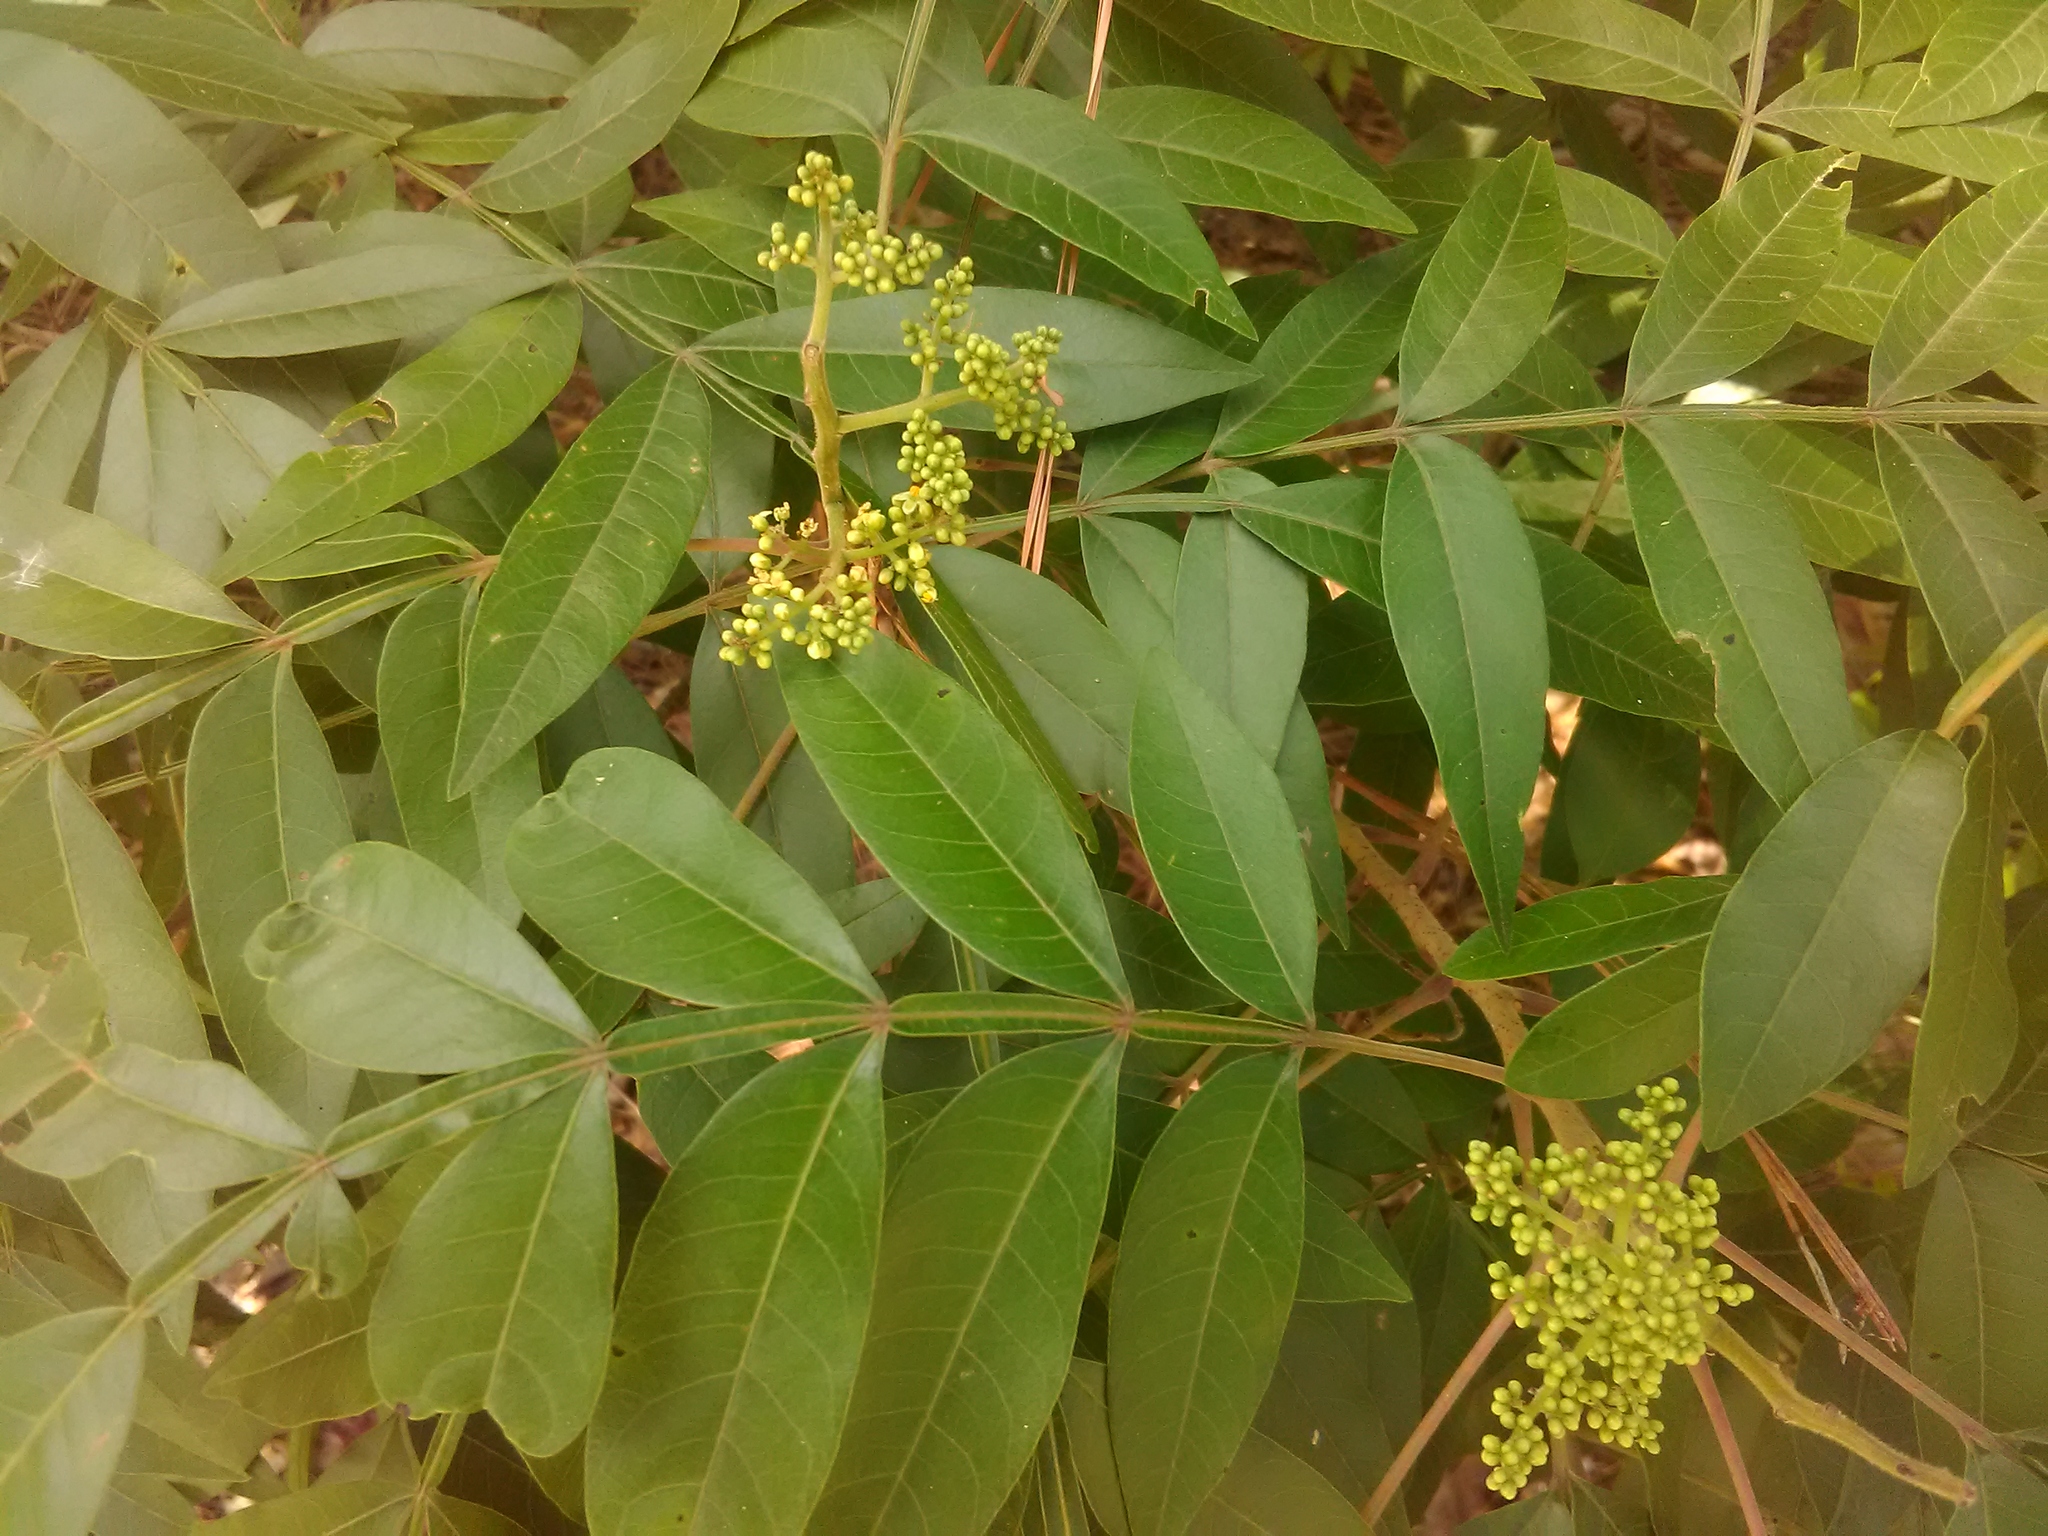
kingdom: Plantae
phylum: Tracheophyta
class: Magnoliopsida
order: Sapindales
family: Anacardiaceae
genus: Rhus
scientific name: Rhus copallina
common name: Shining sumac
